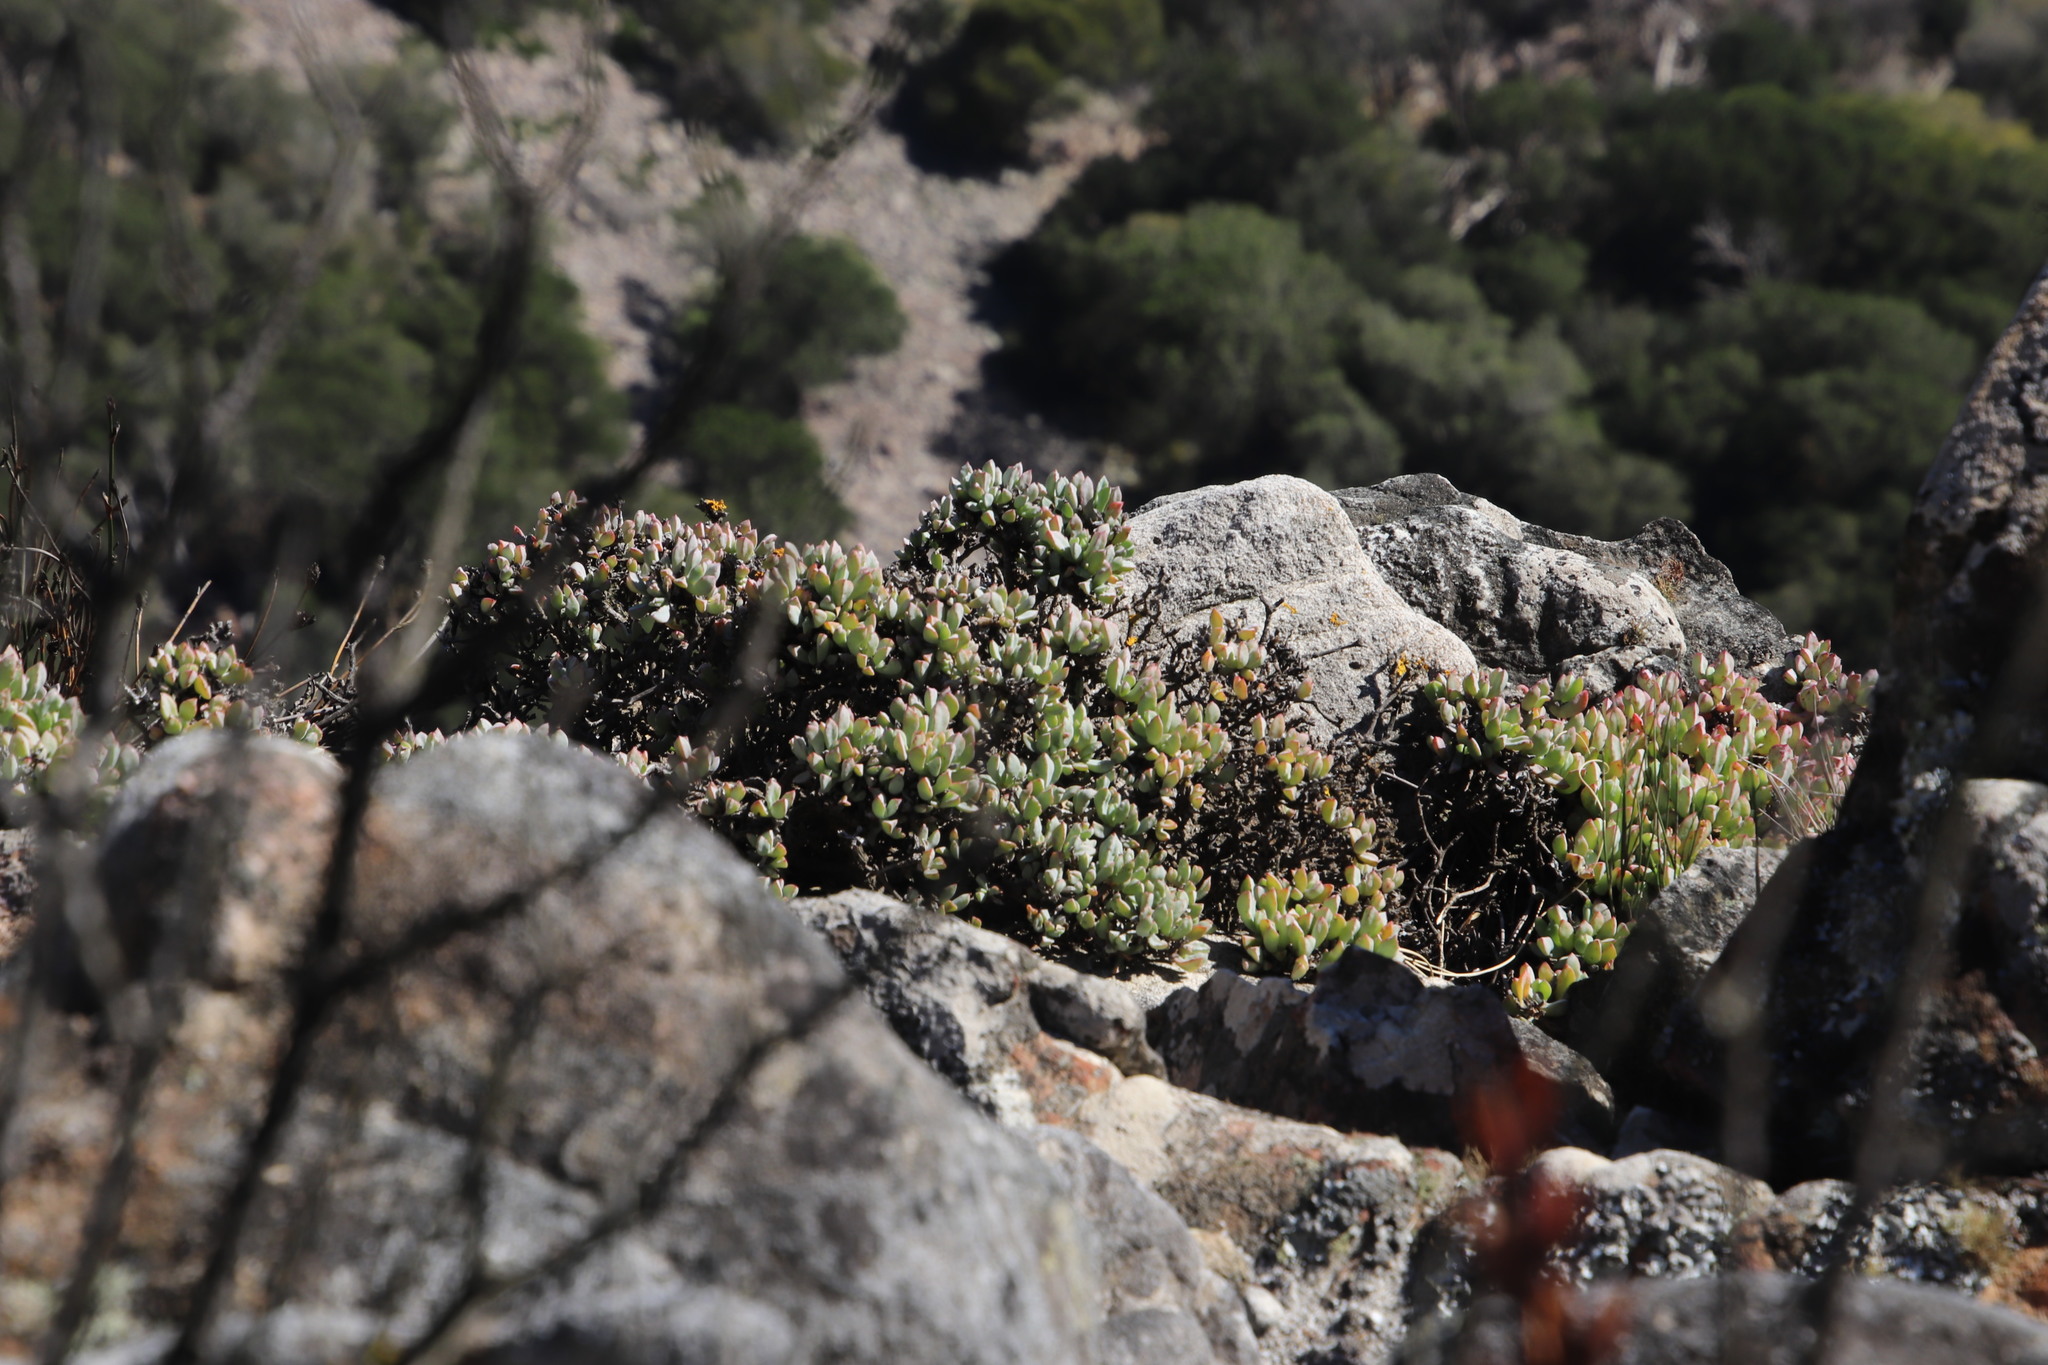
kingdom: Plantae
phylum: Tracheophyta
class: Magnoliopsida
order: Caryophyllales
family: Aizoaceae
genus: Oscularia
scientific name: Oscularia caulescens
